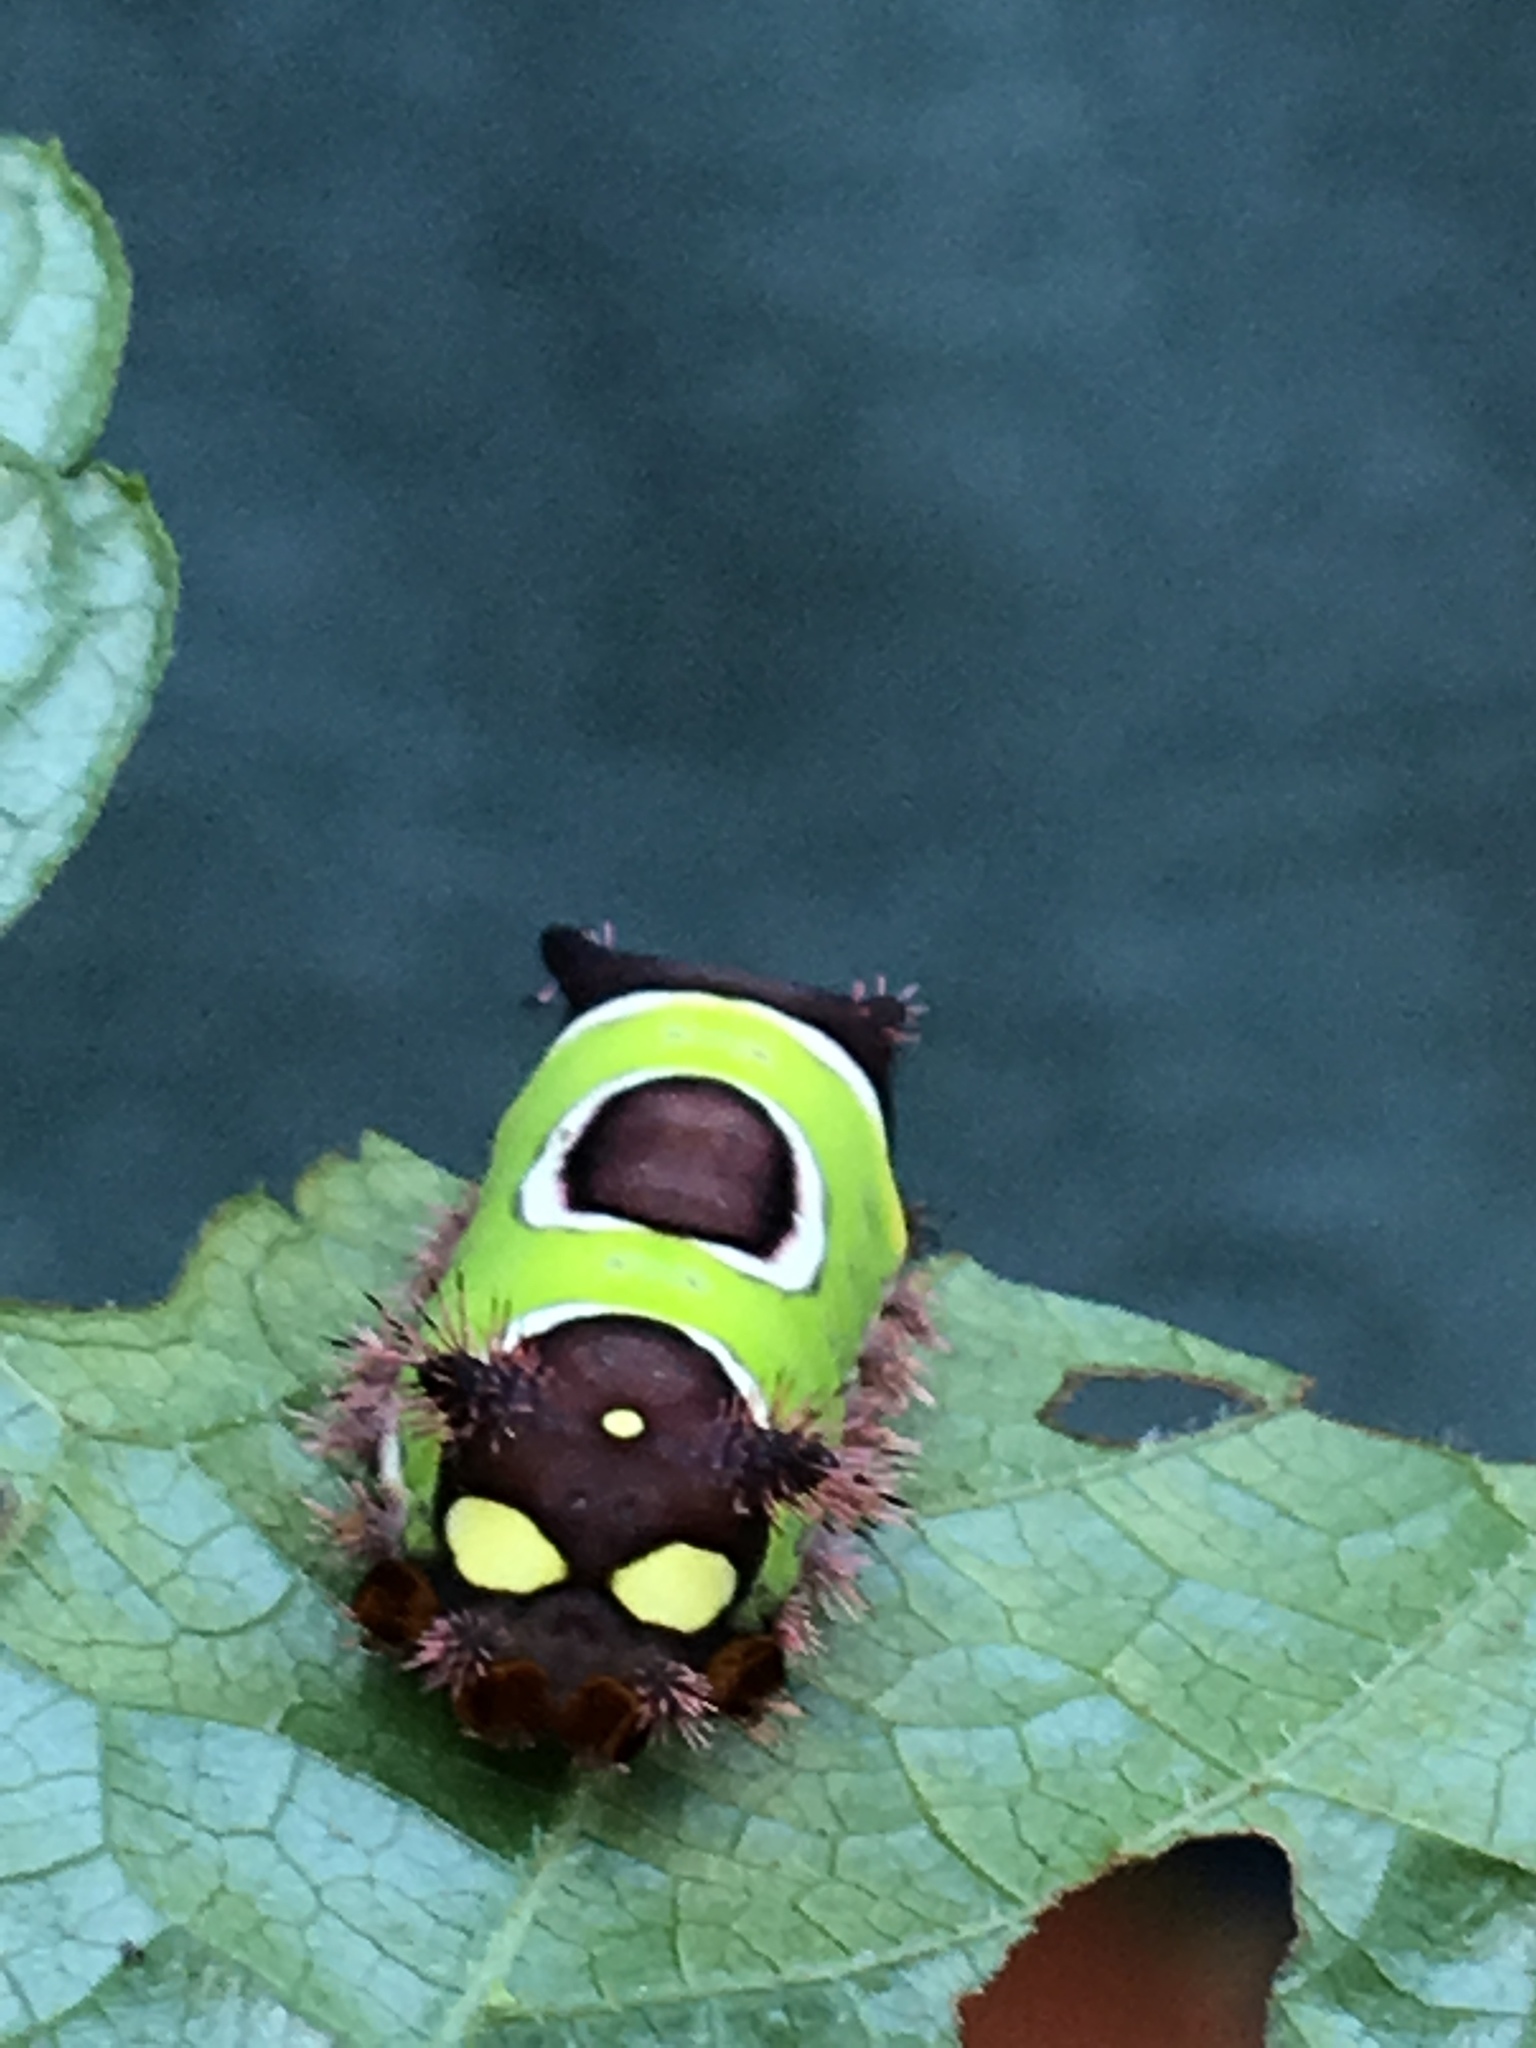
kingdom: Animalia
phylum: Arthropoda
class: Insecta
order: Lepidoptera
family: Limacodidae
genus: Acharia
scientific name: Acharia stimulea
